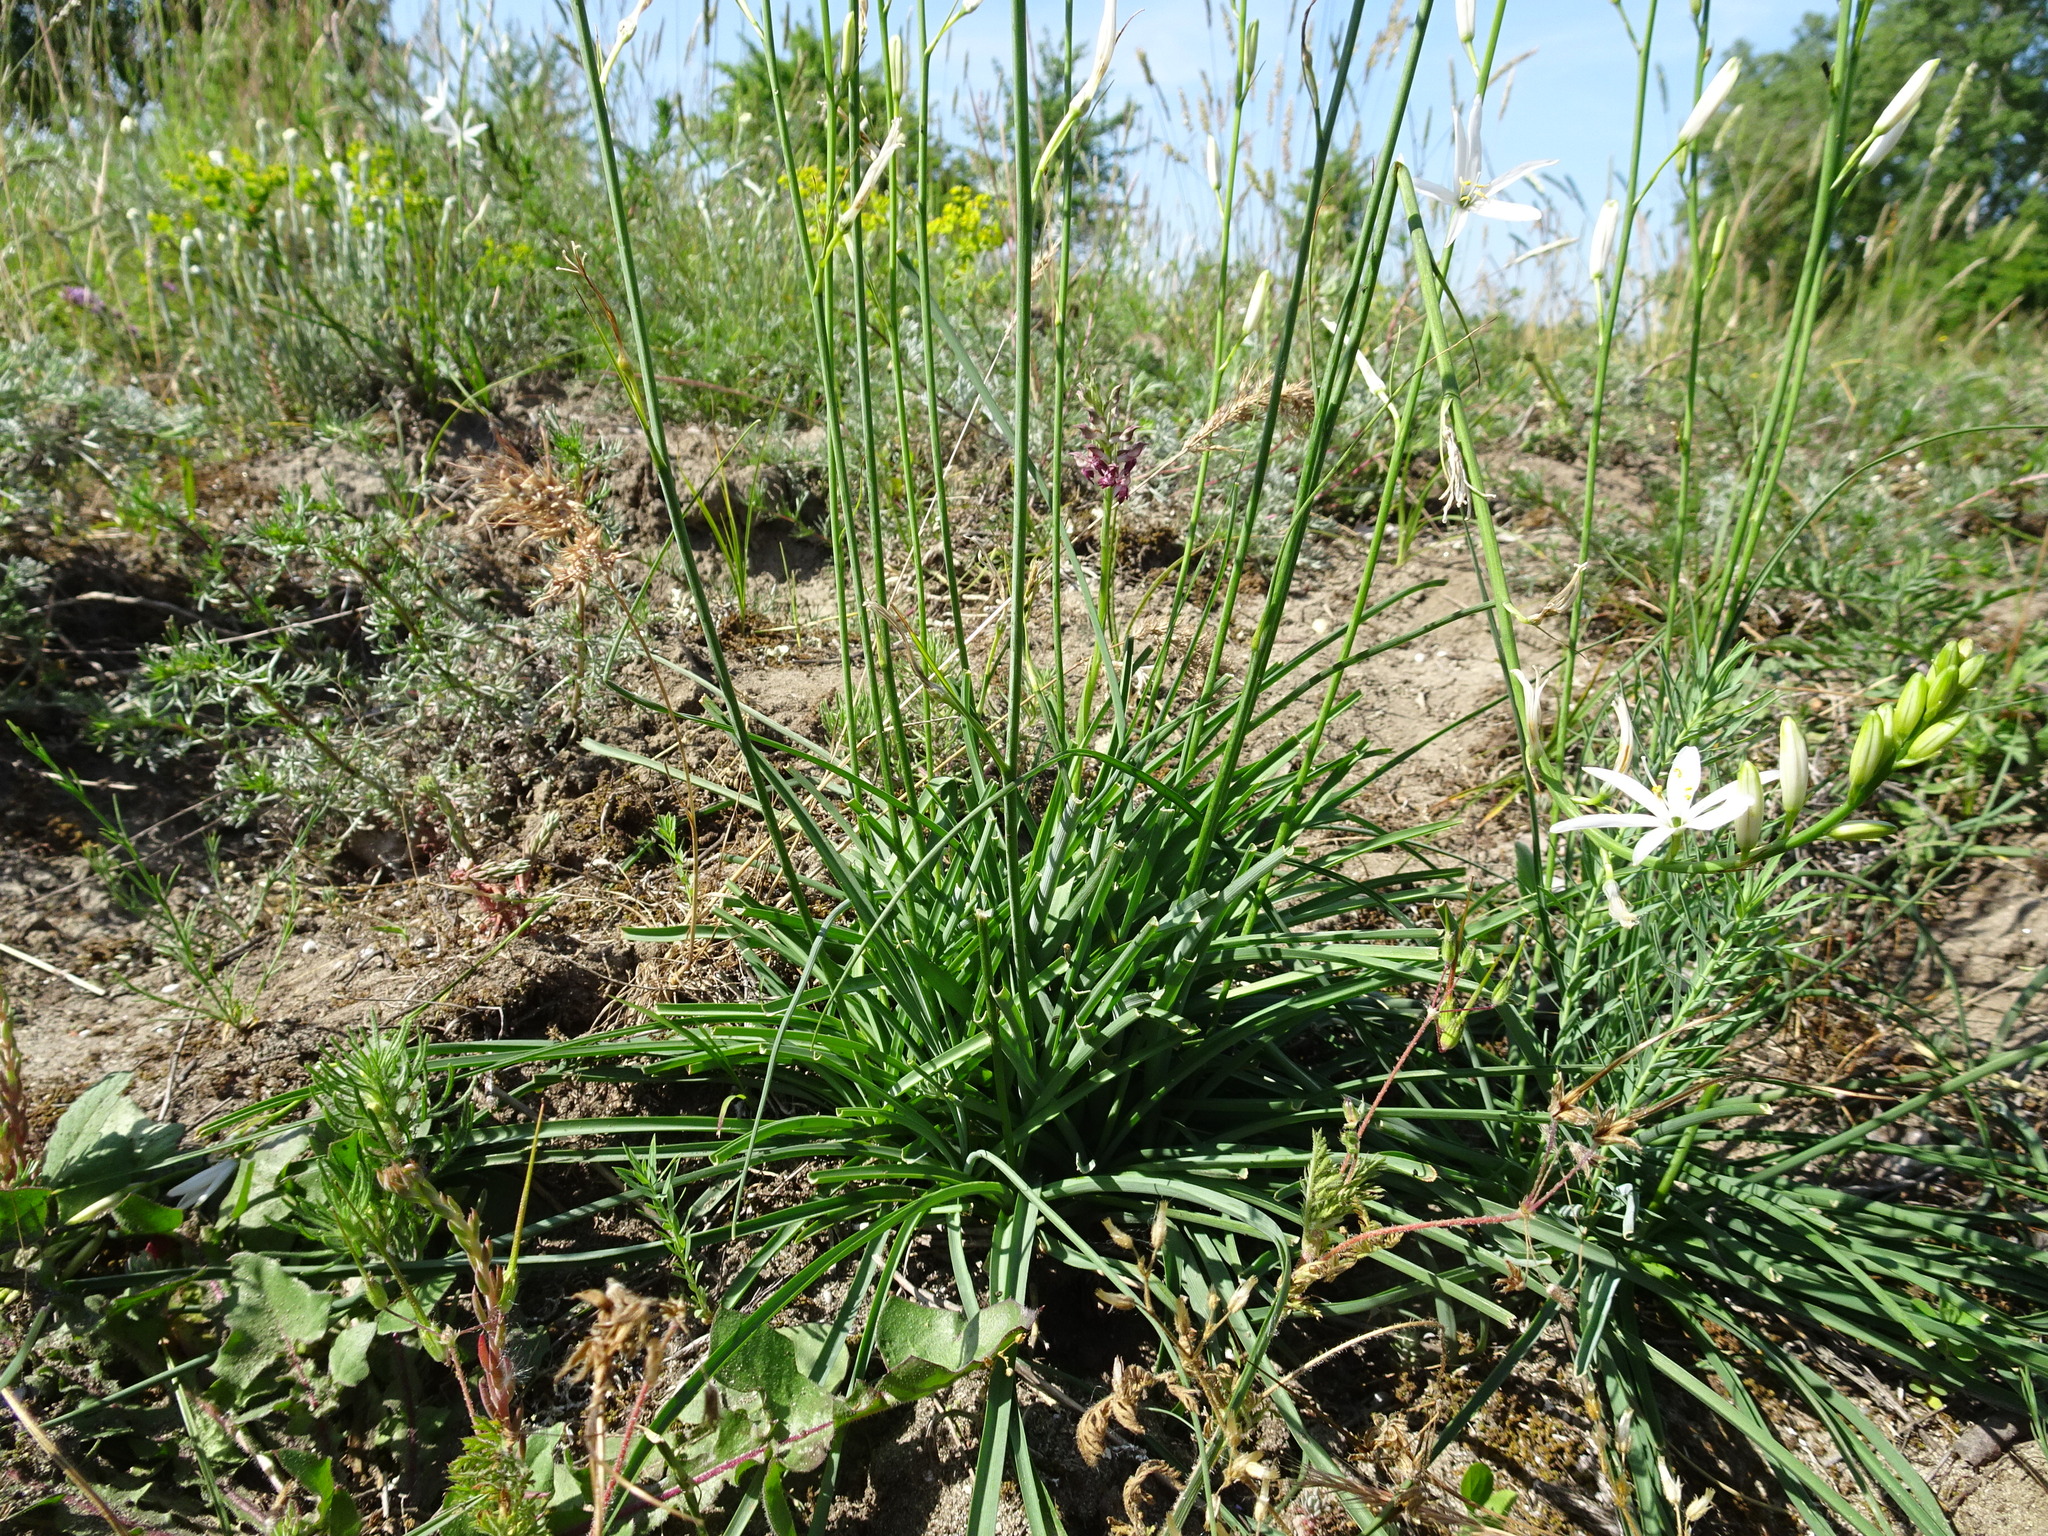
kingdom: Plantae
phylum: Tracheophyta
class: Liliopsida
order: Asparagales
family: Asparagaceae
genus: Anthericum
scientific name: Anthericum liliago
